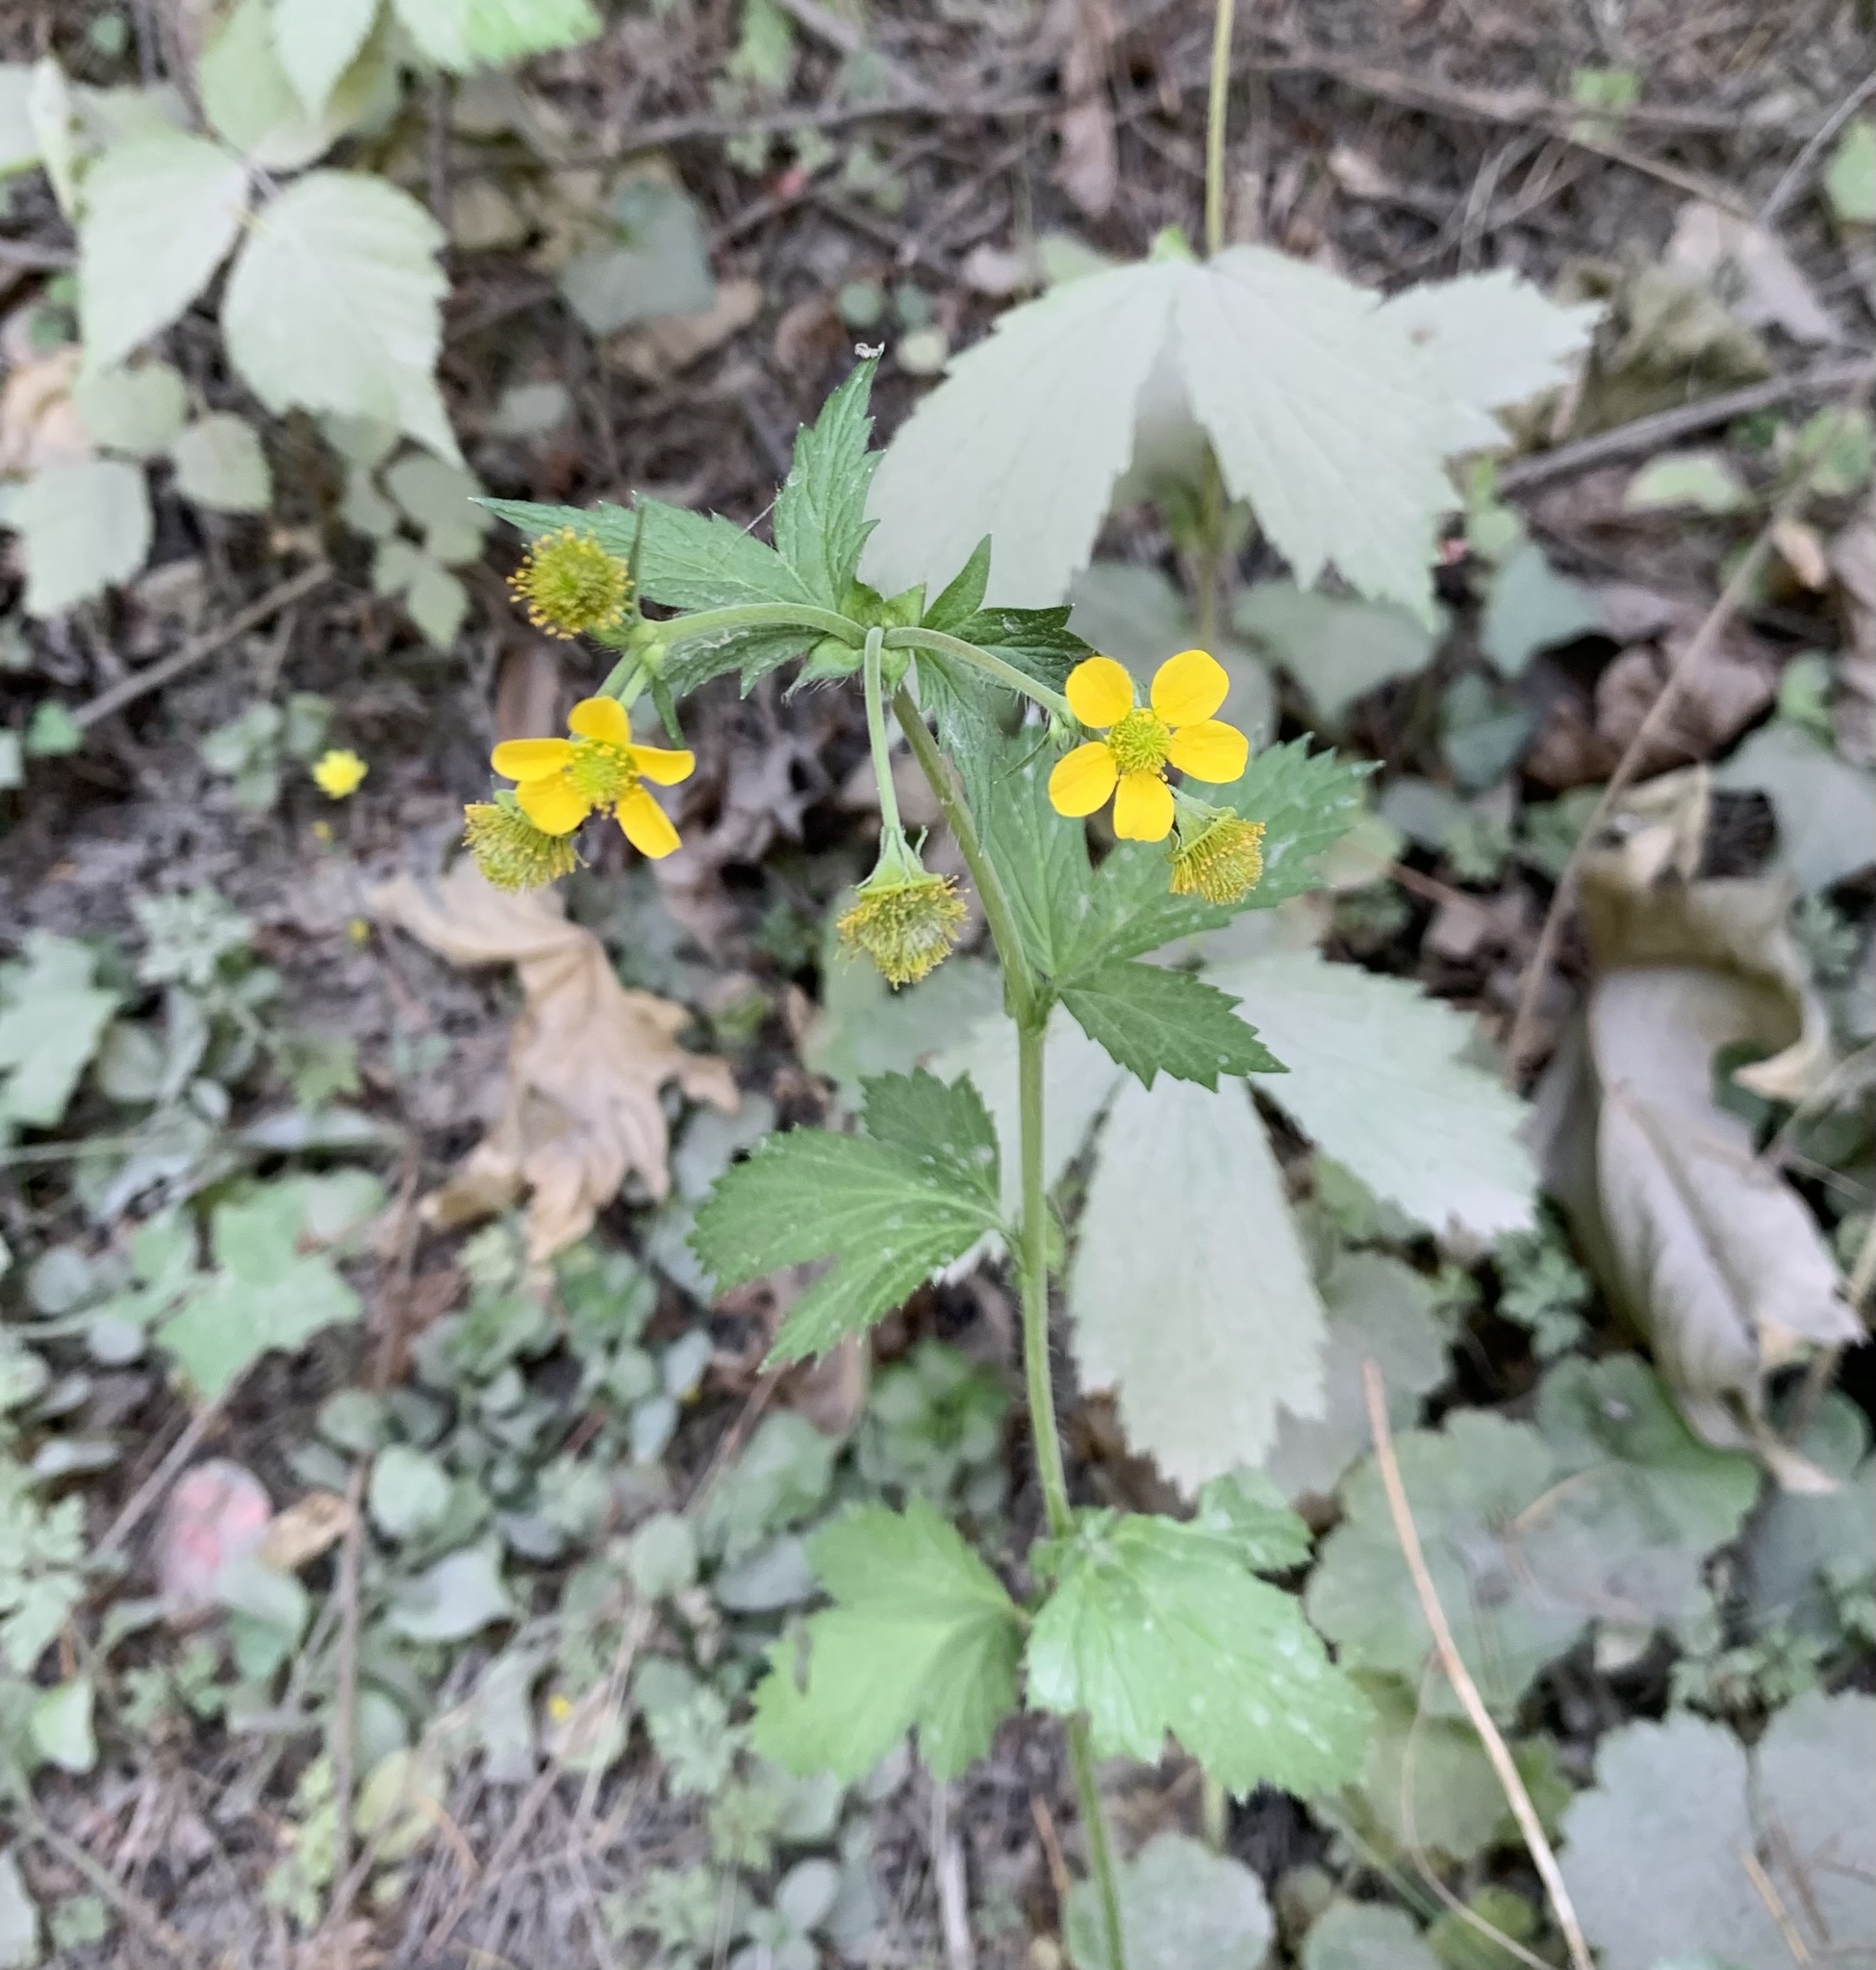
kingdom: Plantae
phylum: Tracheophyta
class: Magnoliopsida
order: Rosales
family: Rosaceae
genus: Geum
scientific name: Geum macrophyllum
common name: Large-leaved avens
